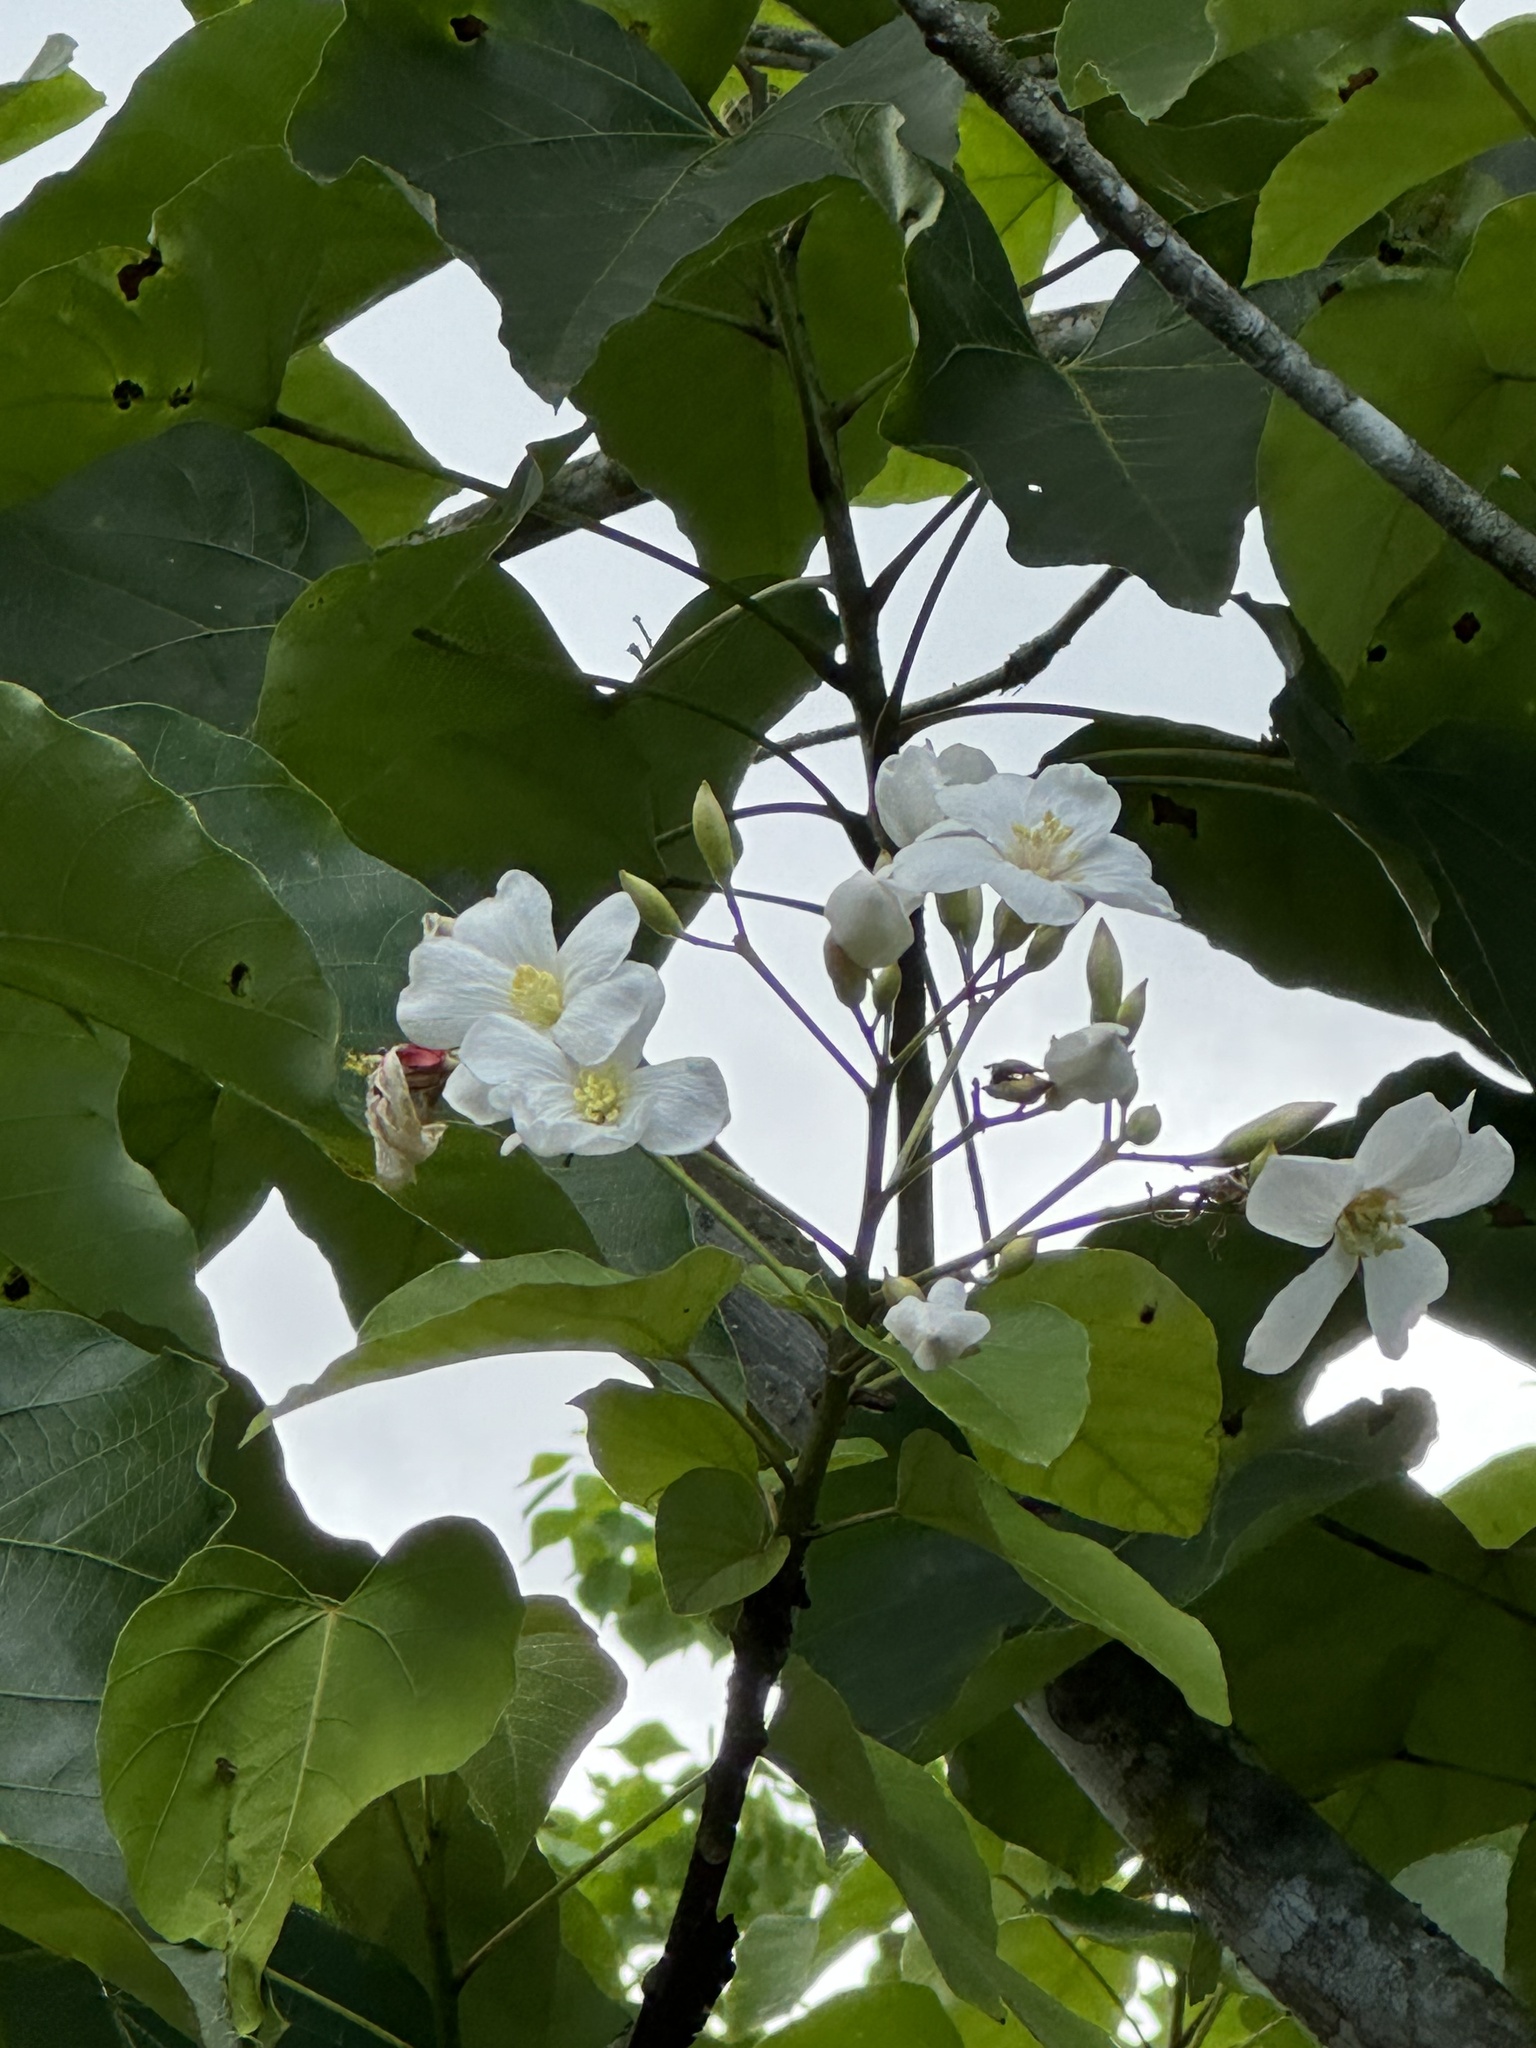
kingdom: Plantae
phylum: Tracheophyta
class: Magnoliopsida
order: Malpighiales
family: Euphorbiaceae
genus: Vernicia
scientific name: Vernicia montana
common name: Mu oil tree
